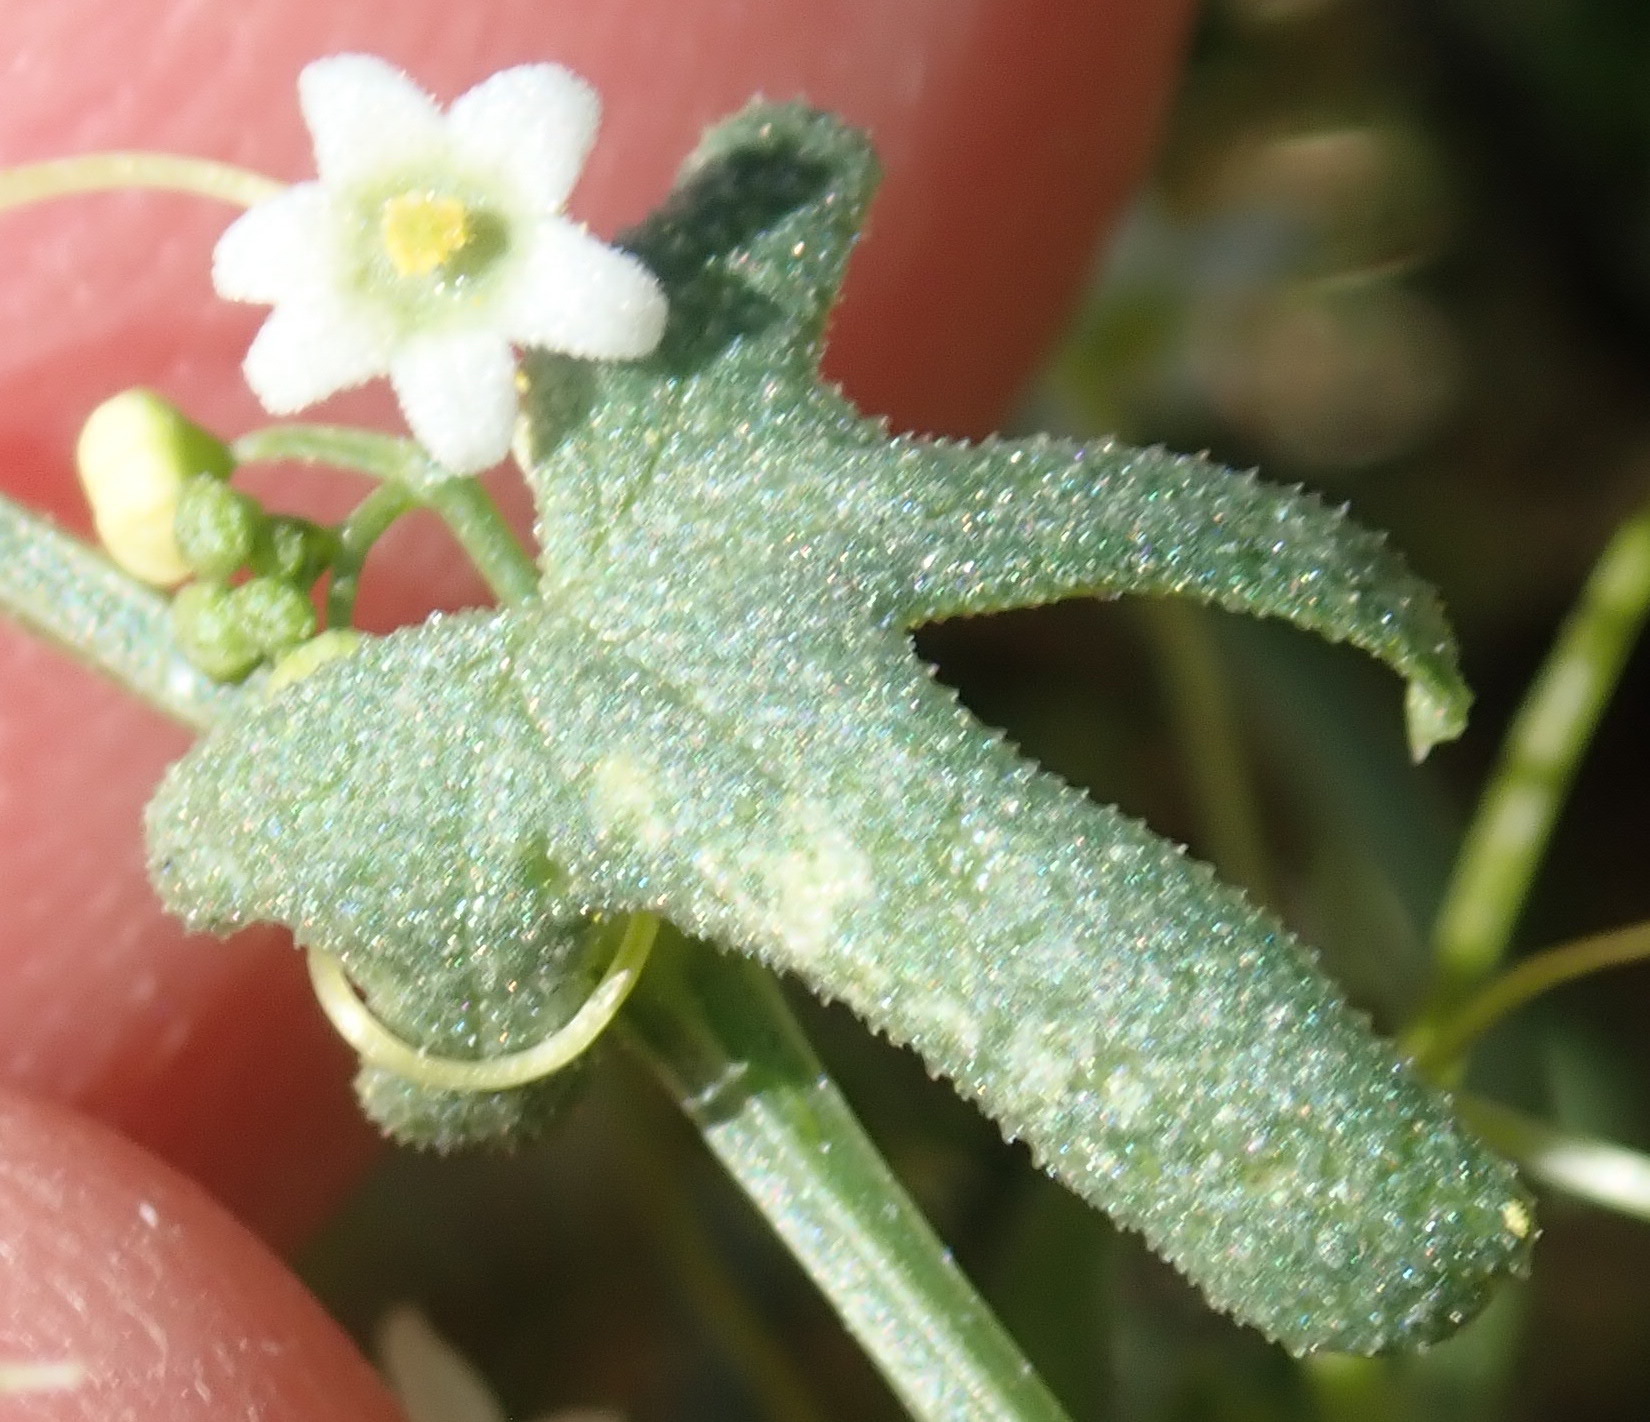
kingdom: Plantae
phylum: Tracheophyta
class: Magnoliopsida
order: Cucurbitales
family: Cucurbitaceae
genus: Echinopepon
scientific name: Echinopepon bigelovii
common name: Desert starvine
